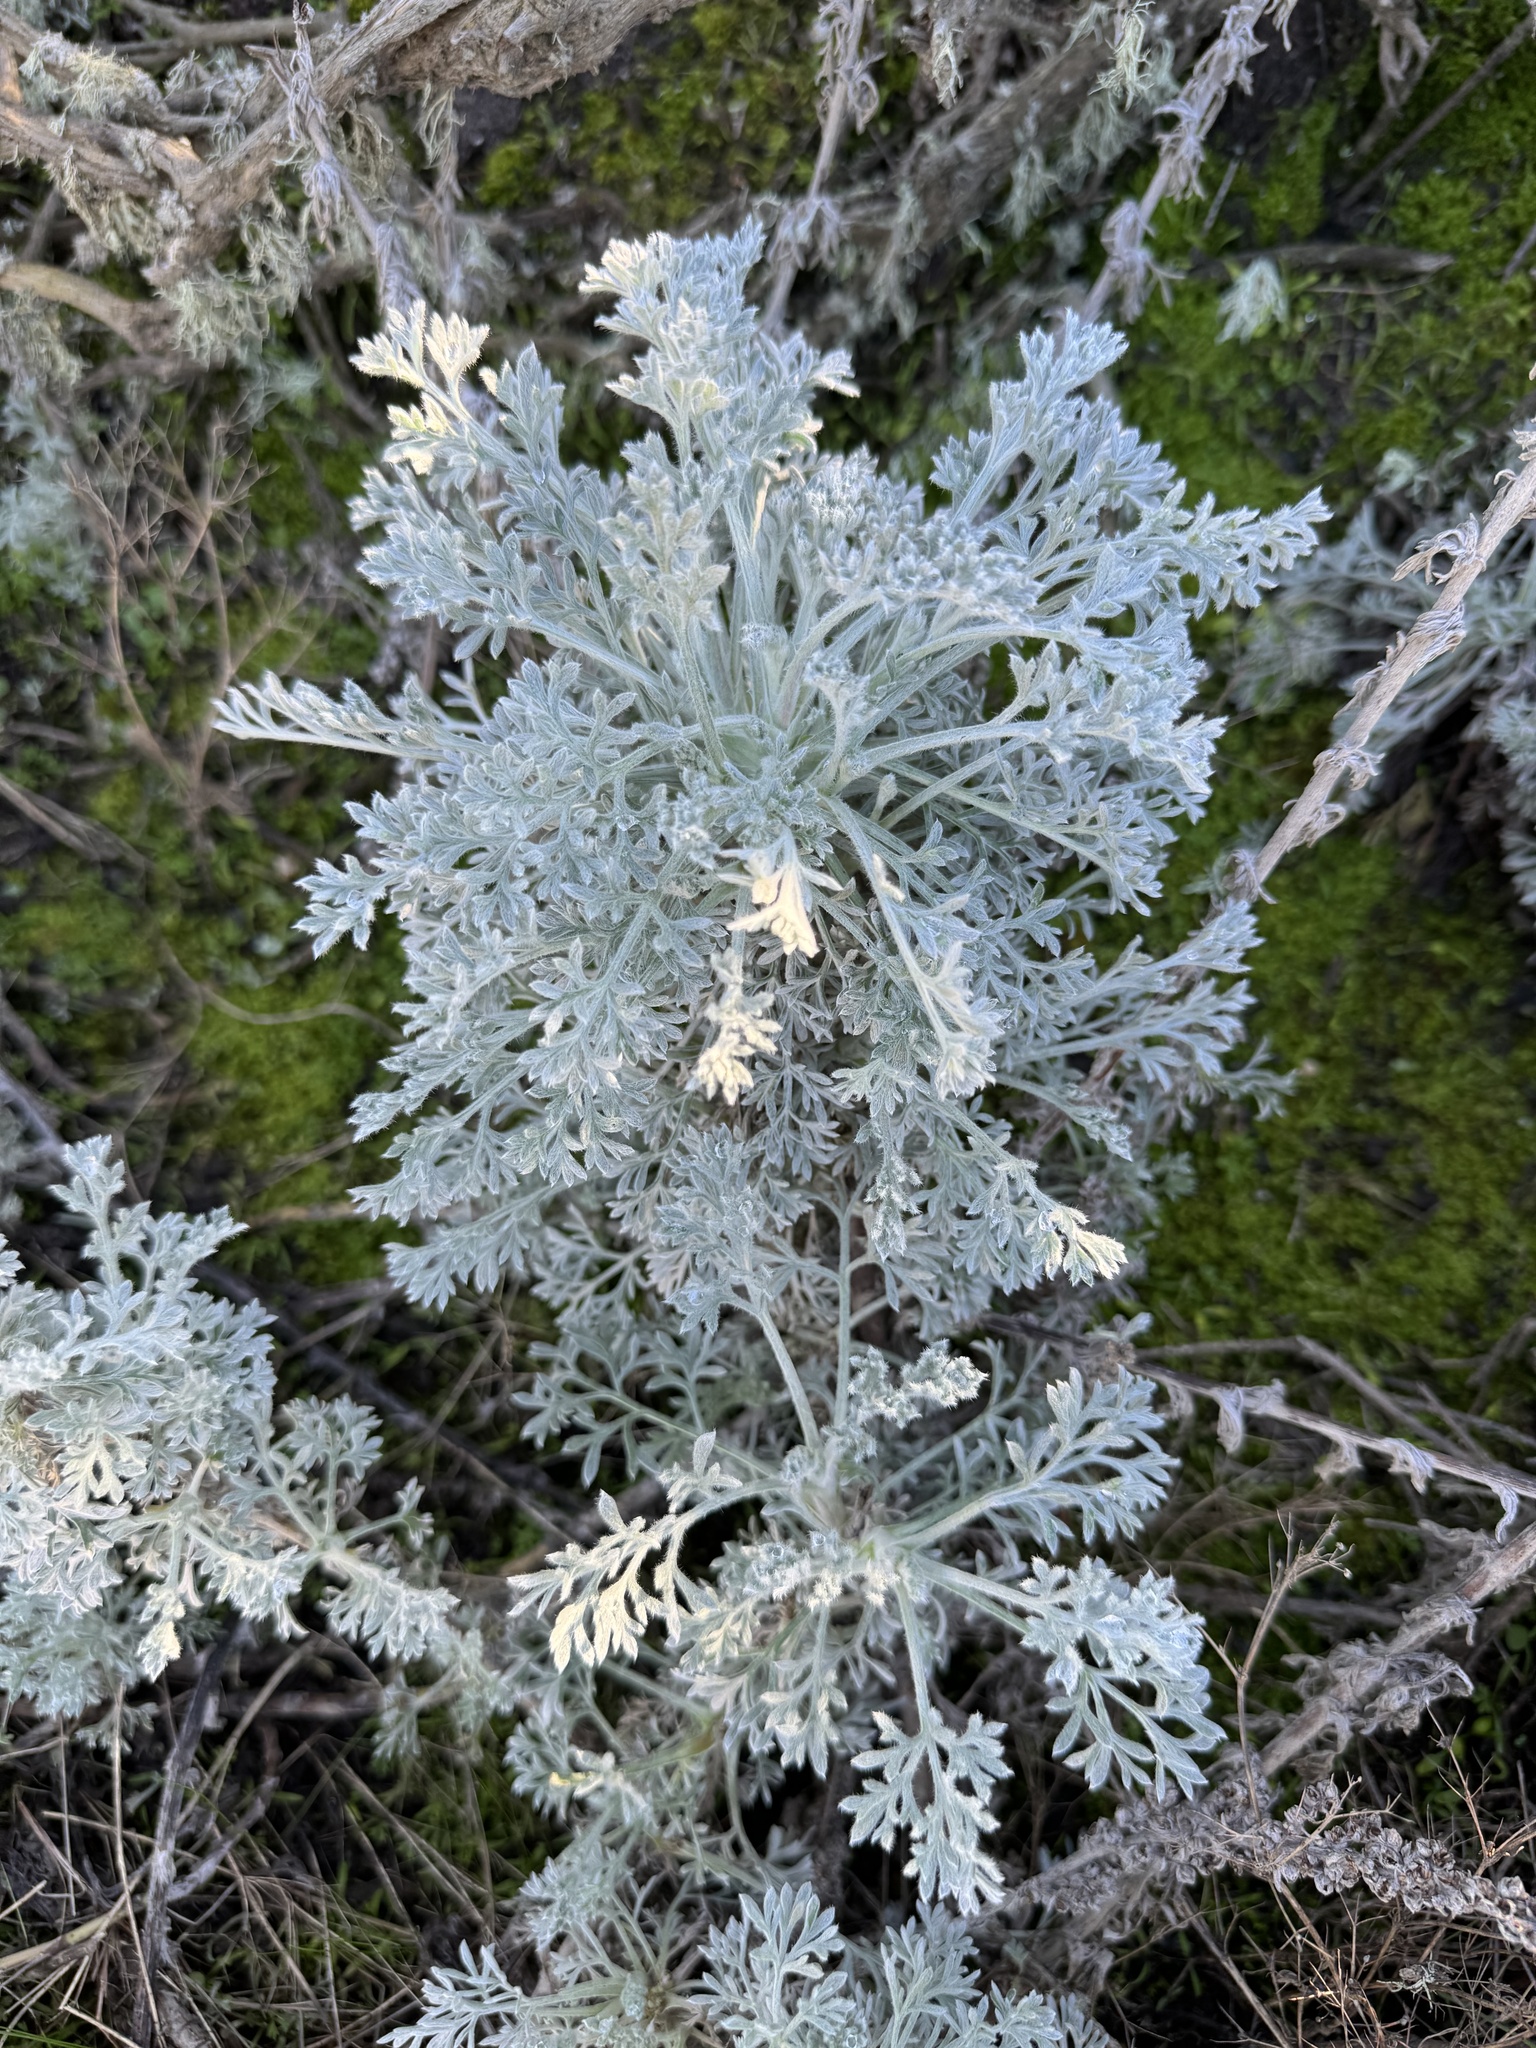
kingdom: Plantae
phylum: Tracheophyta
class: Magnoliopsida
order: Asterales
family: Asteraceae
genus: Artemisia
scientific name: Artemisia pycnocephala
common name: Coastal sagewort
